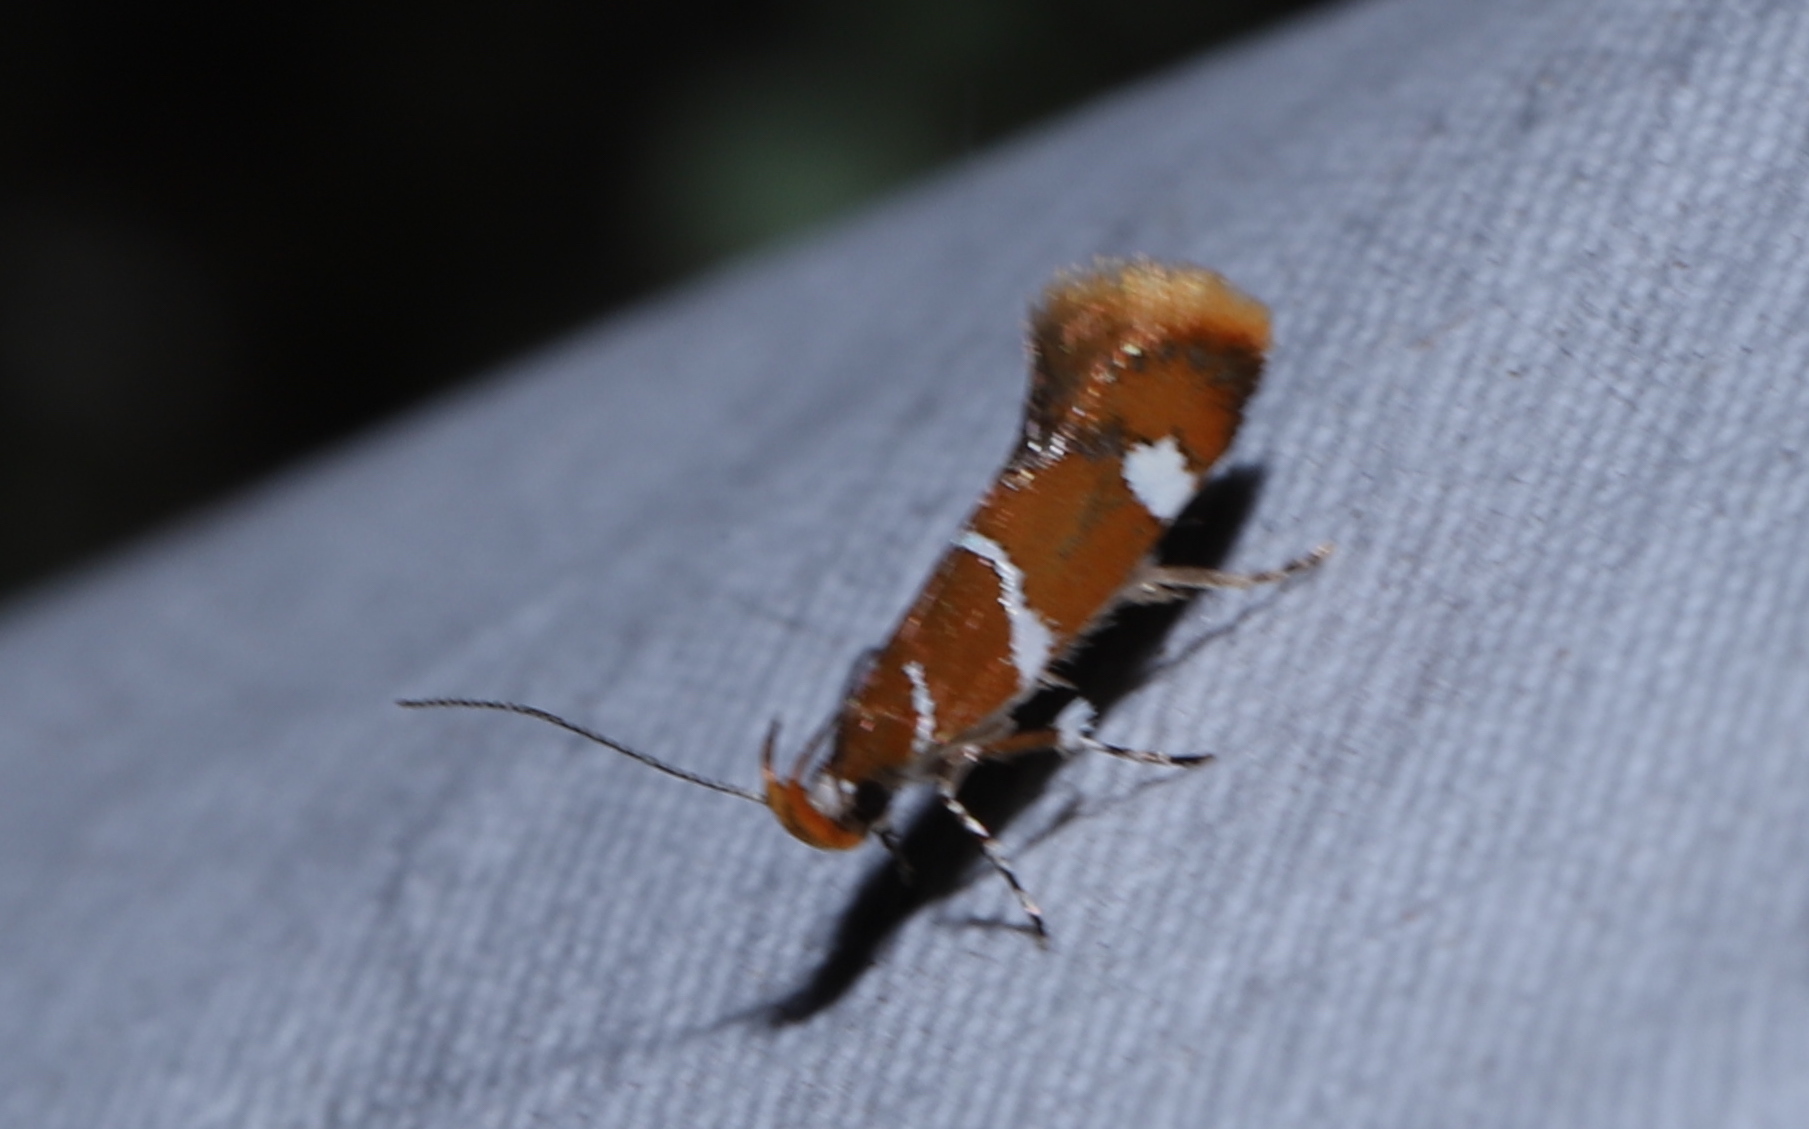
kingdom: Animalia
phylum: Arthropoda
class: Insecta
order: Lepidoptera
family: Oecophoridae
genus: Promalactis
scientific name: Promalactis suzukiella
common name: Moth
